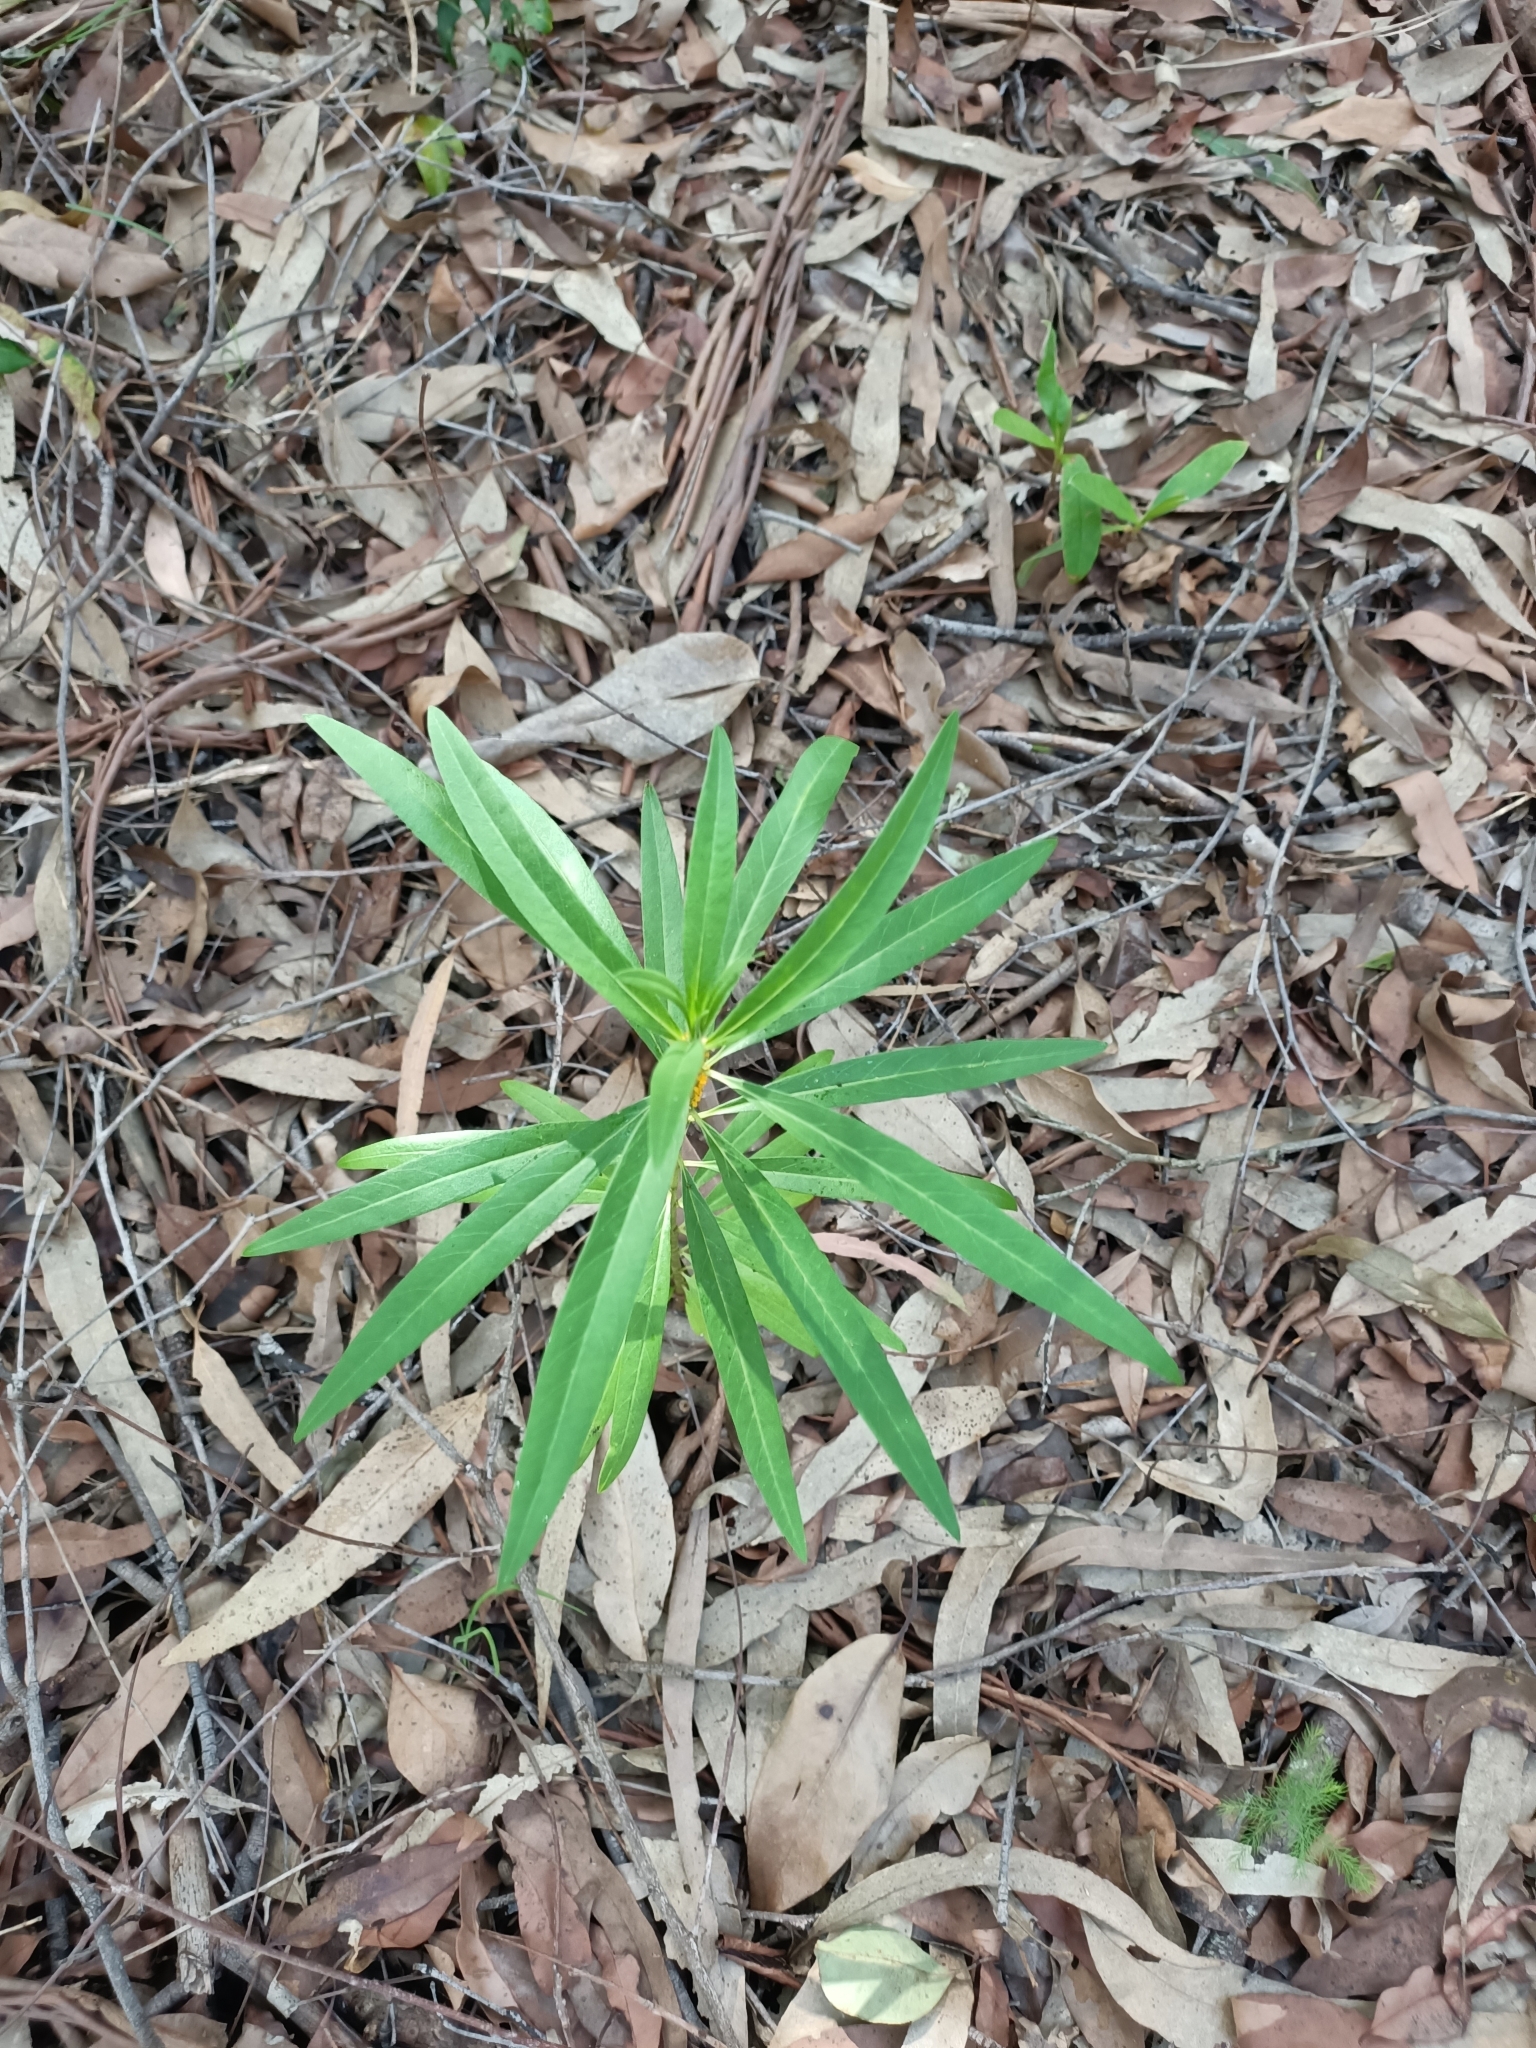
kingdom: Plantae
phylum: Tracheophyta
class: Magnoliopsida
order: Gentianales
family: Apocynaceae
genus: Gomphocarpus
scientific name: Gomphocarpus physocarpus
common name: Balloon cotton bush
